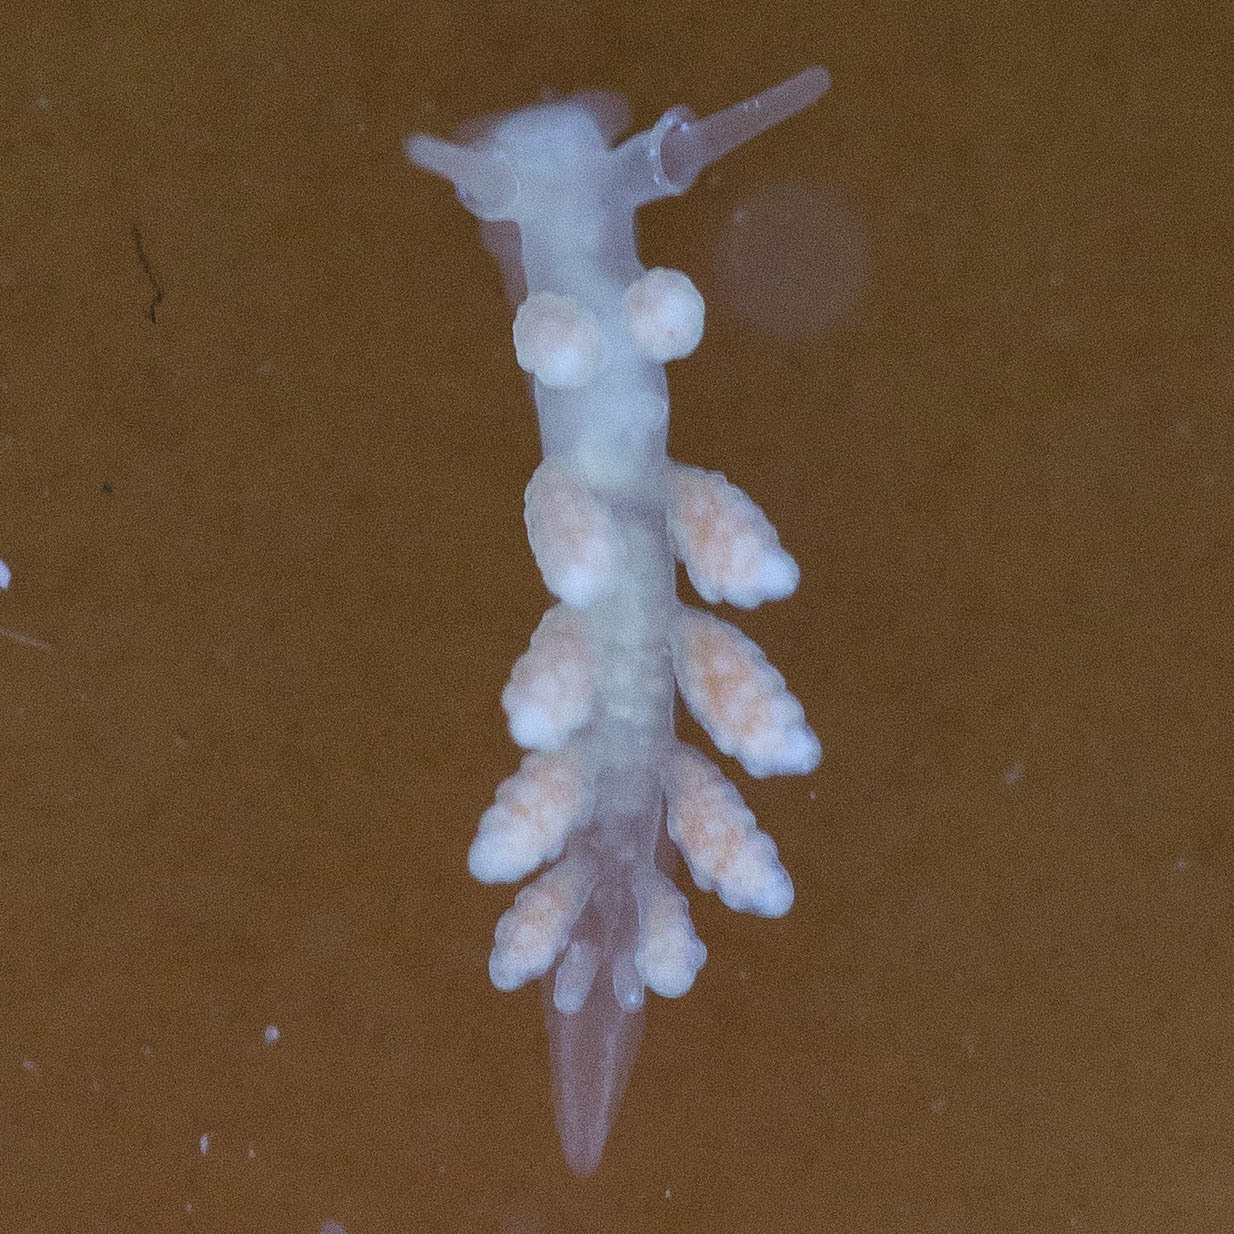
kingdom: Animalia
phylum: Mollusca
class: Gastropoda
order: Nudibranchia
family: Dotidae
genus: Doto
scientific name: Doto amyra
